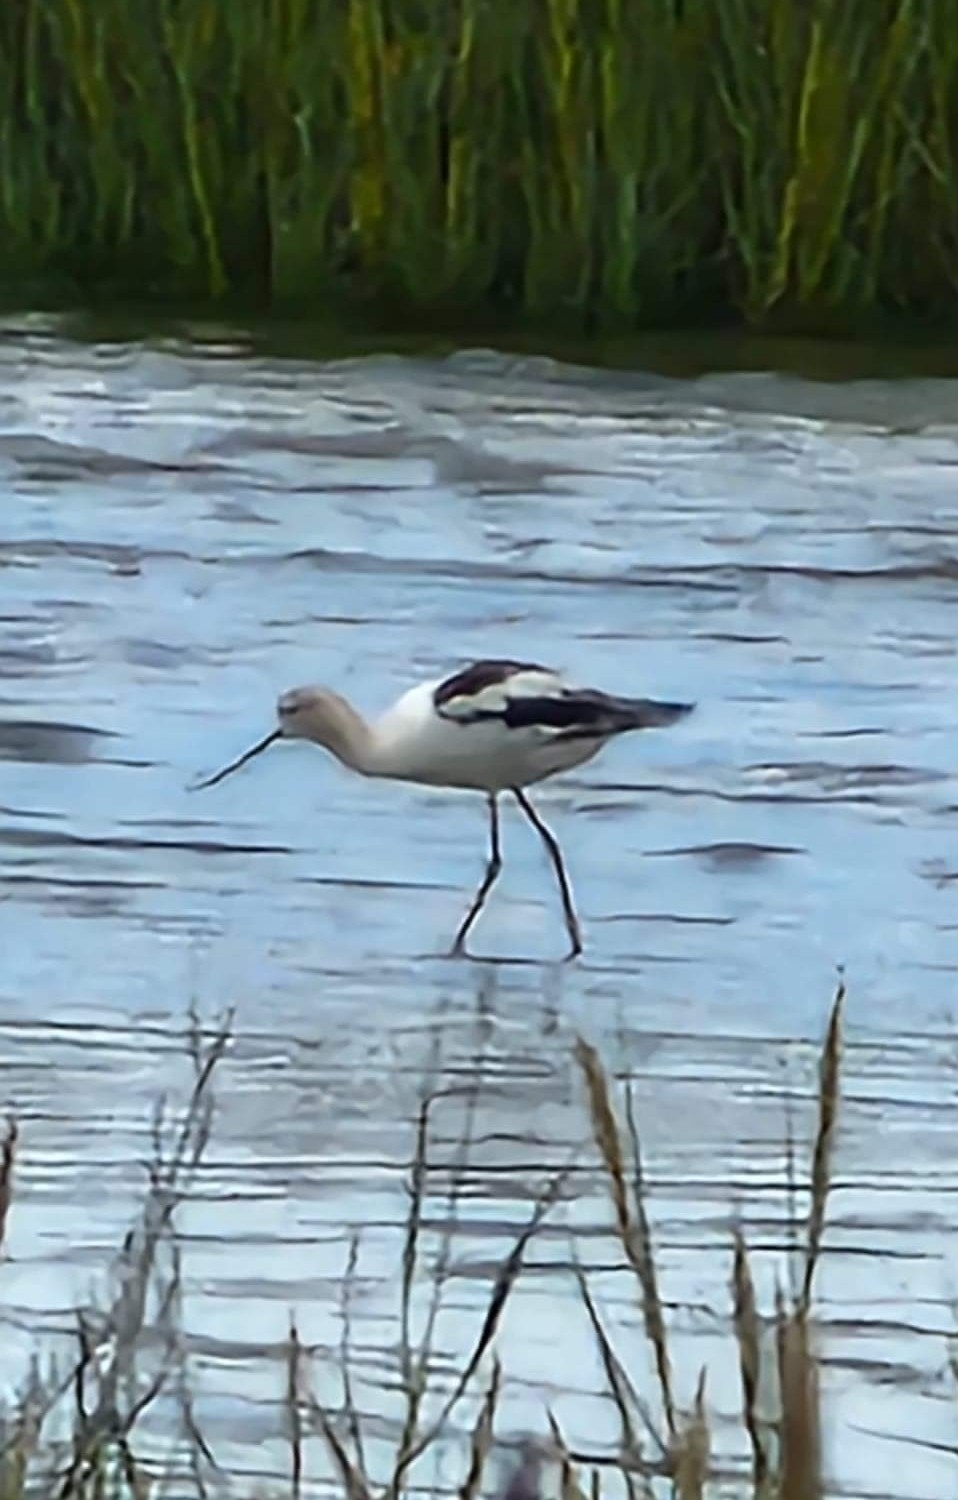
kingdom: Animalia
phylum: Chordata
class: Aves
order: Charadriiformes
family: Recurvirostridae
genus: Recurvirostra
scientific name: Recurvirostra americana
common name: American avocet
